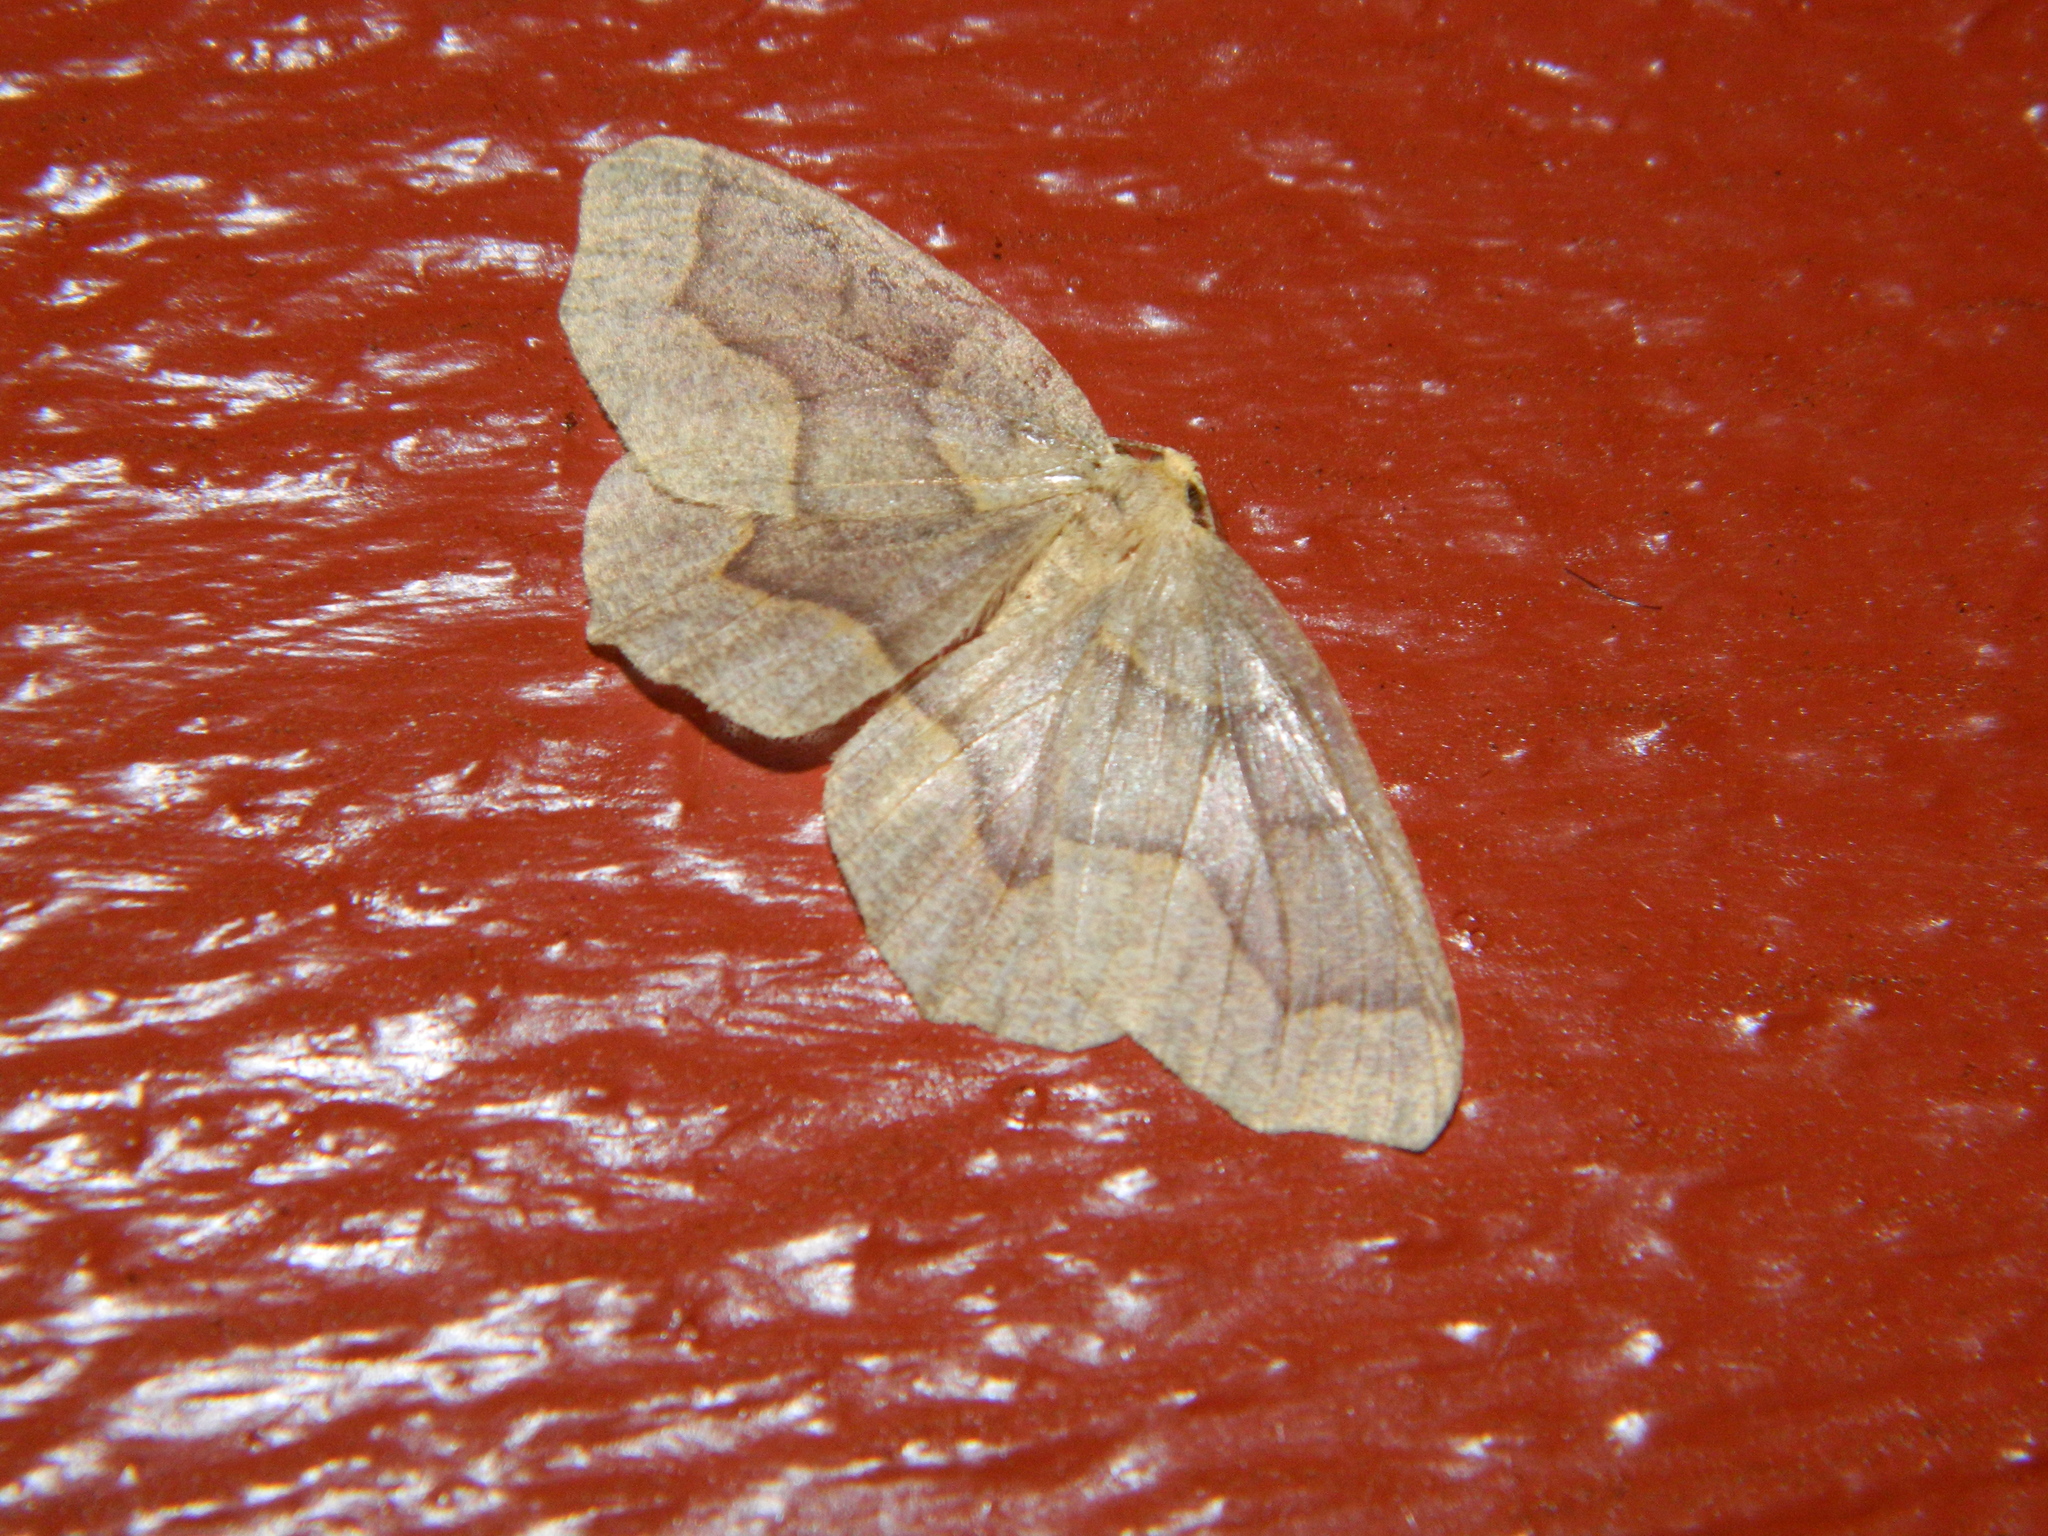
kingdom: Animalia
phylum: Arthropoda
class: Insecta
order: Lepidoptera
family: Geometridae
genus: Lambdina
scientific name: Lambdina fiscellaria
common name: Hemlock looper
